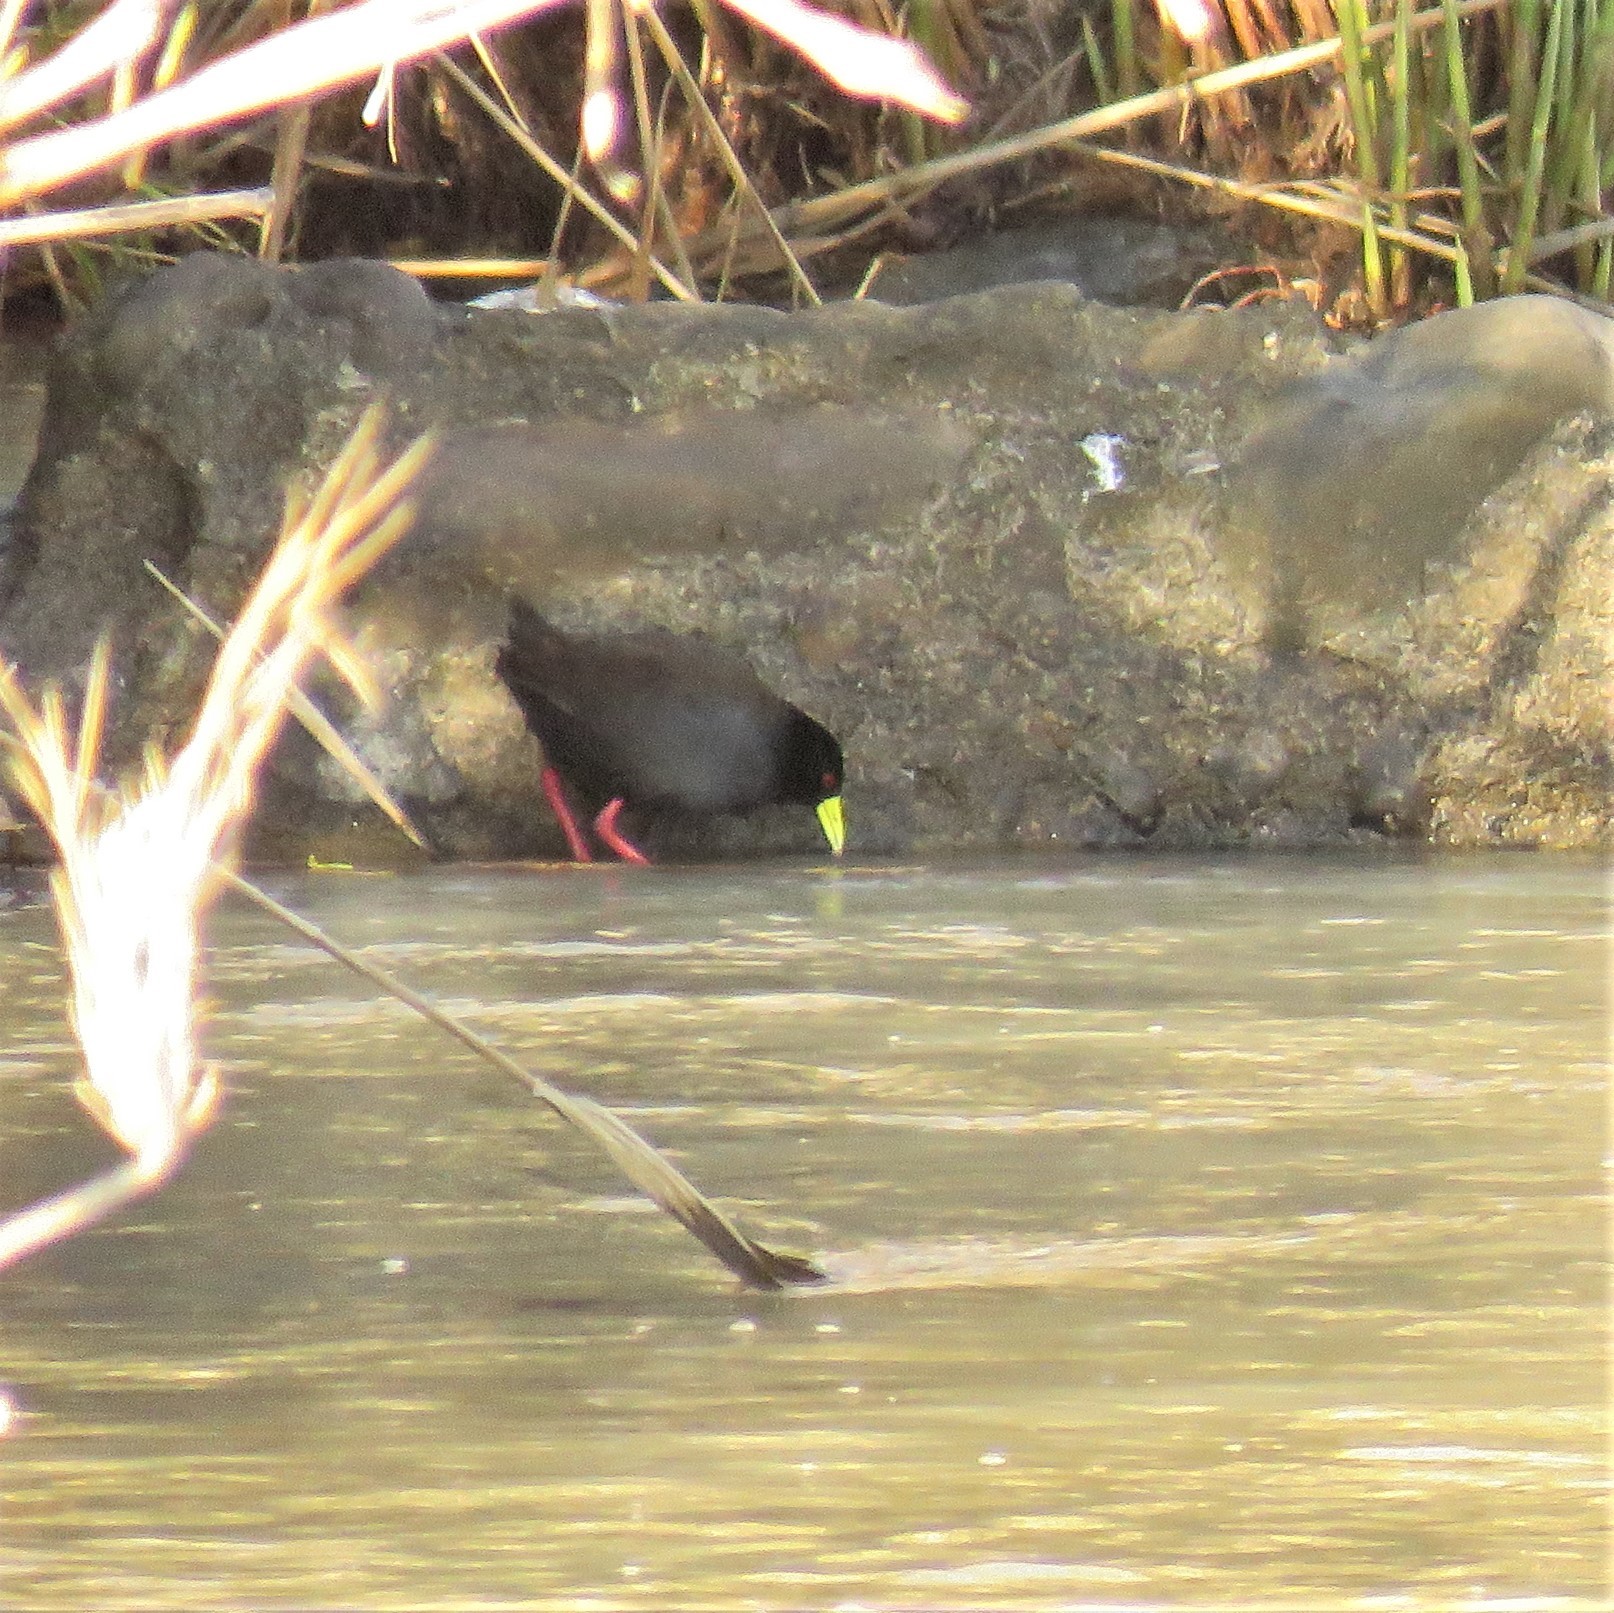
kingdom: Animalia
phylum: Chordata
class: Aves
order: Gruiformes
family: Rallidae
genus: Amaurornis
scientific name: Amaurornis flavirostra
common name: Black crake
